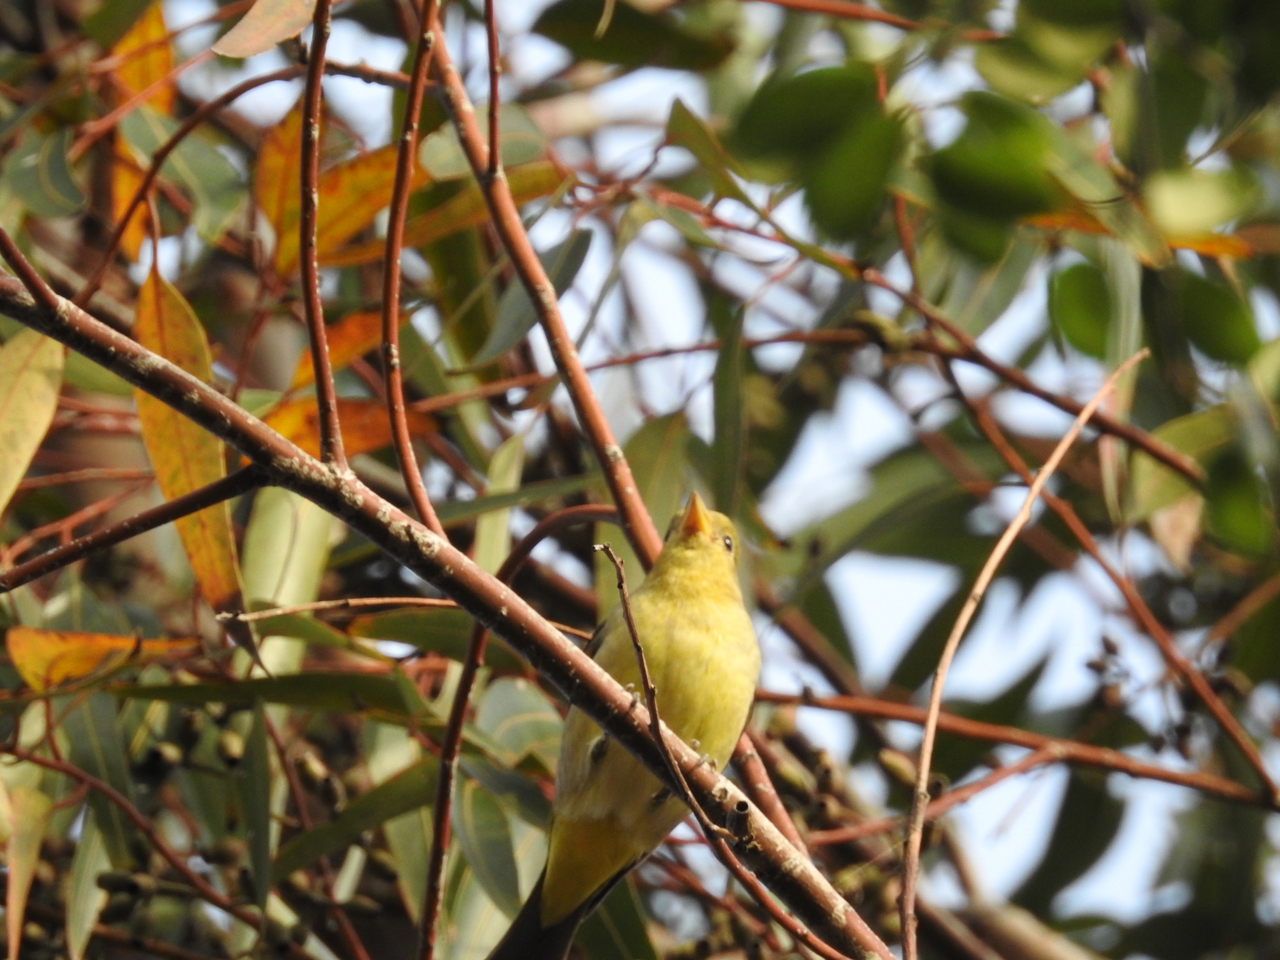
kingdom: Animalia
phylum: Chordata
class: Aves
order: Passeriformes
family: Cardinalidae
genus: Piranga
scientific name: Piranga ludoviciana
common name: Western tanager
